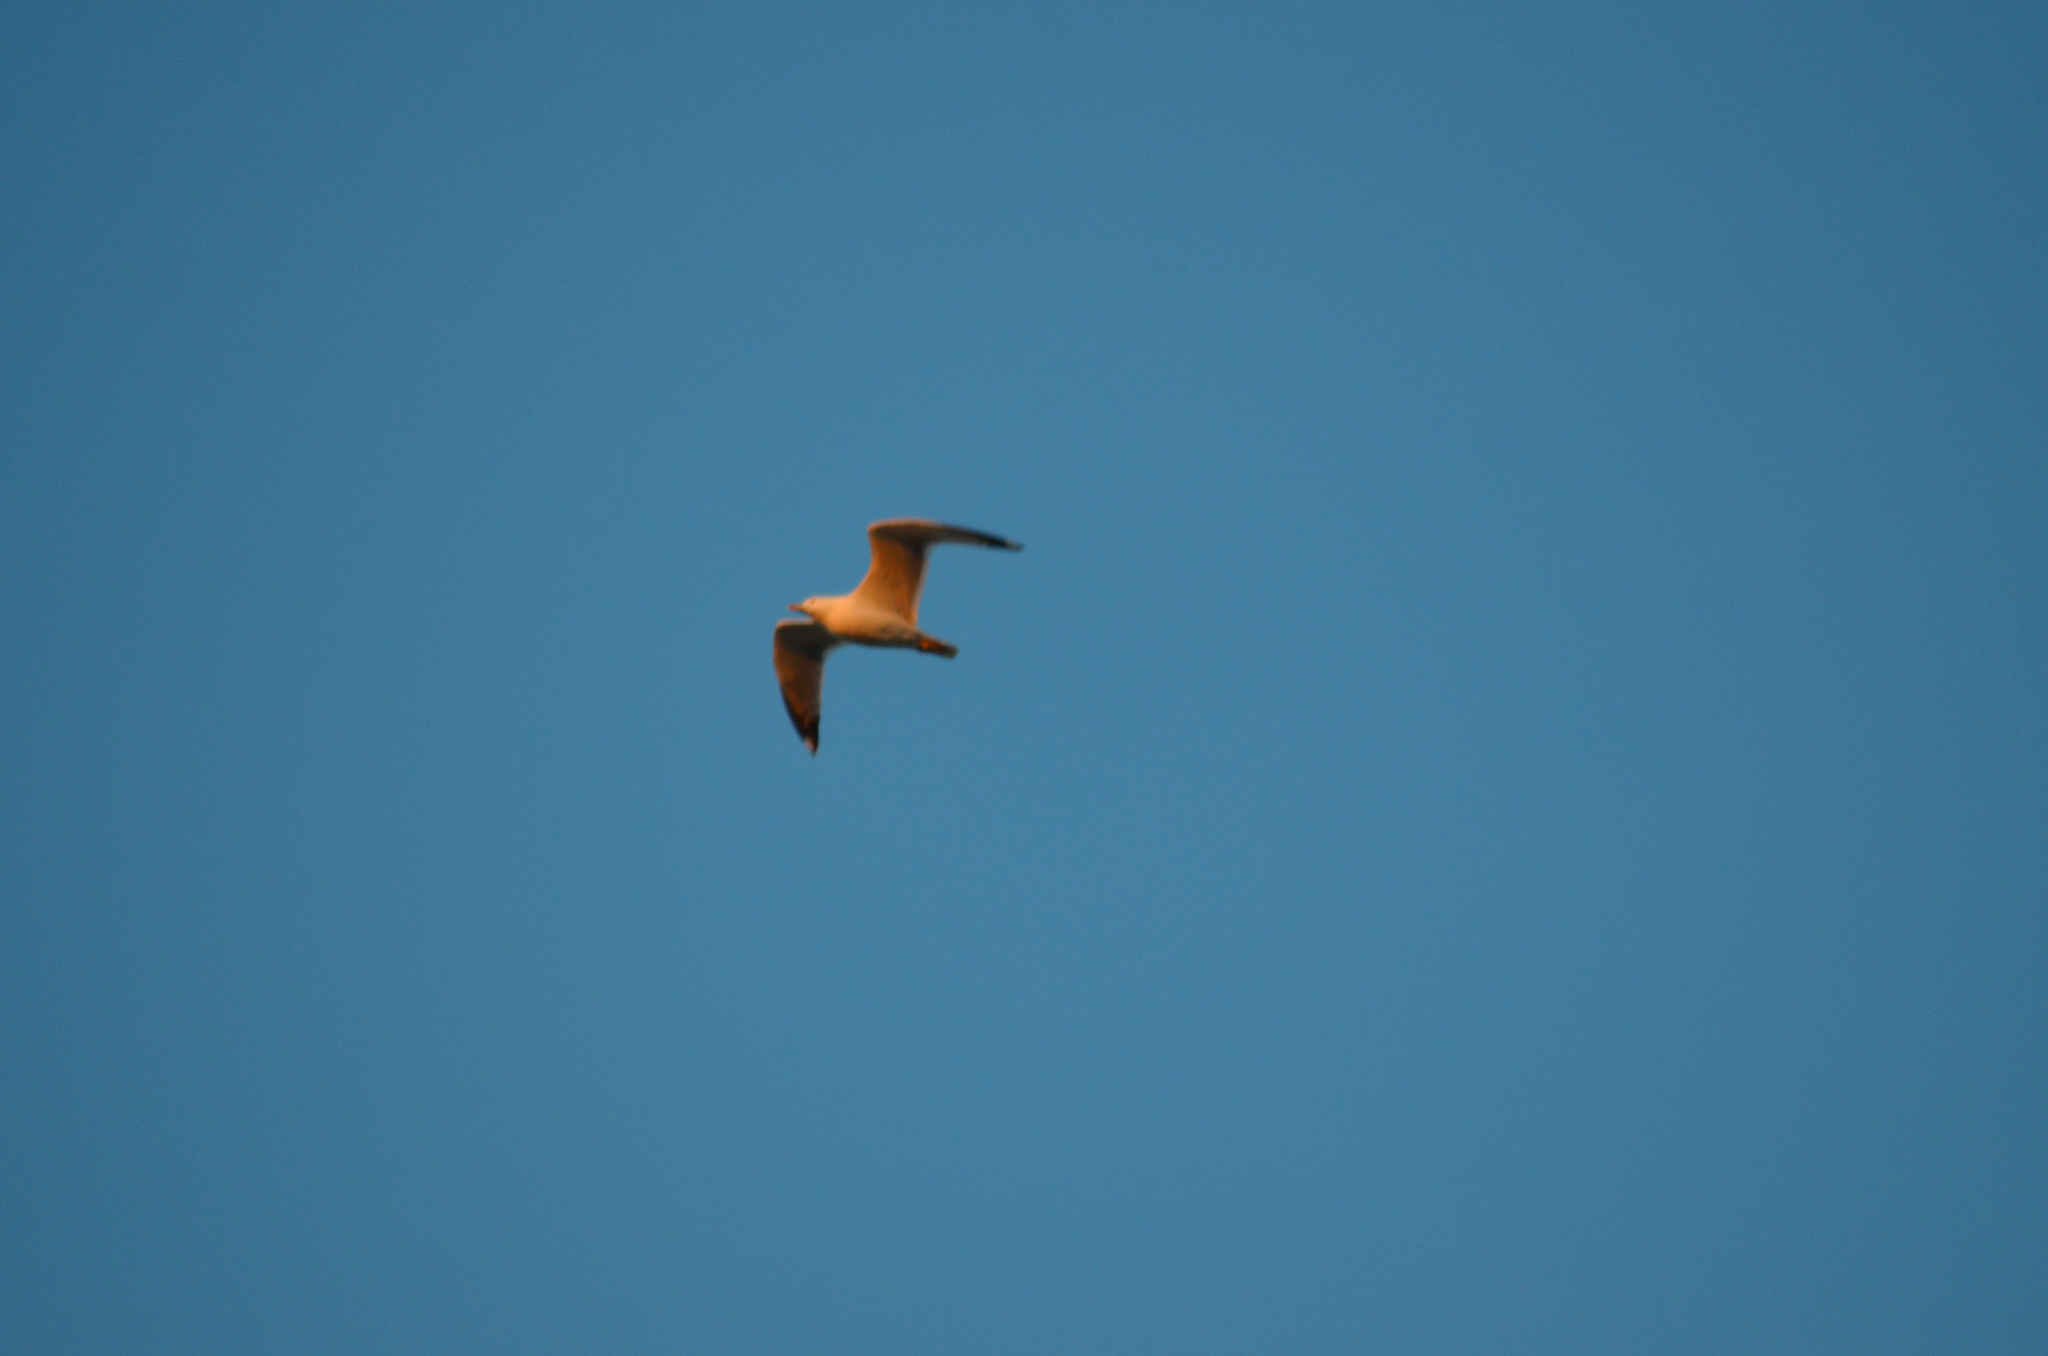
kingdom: Animalia
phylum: Chordata
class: Aves
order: Charadriiformes
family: Laridae
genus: Larus
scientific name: Larus michahellis
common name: Yellow-legged gull
